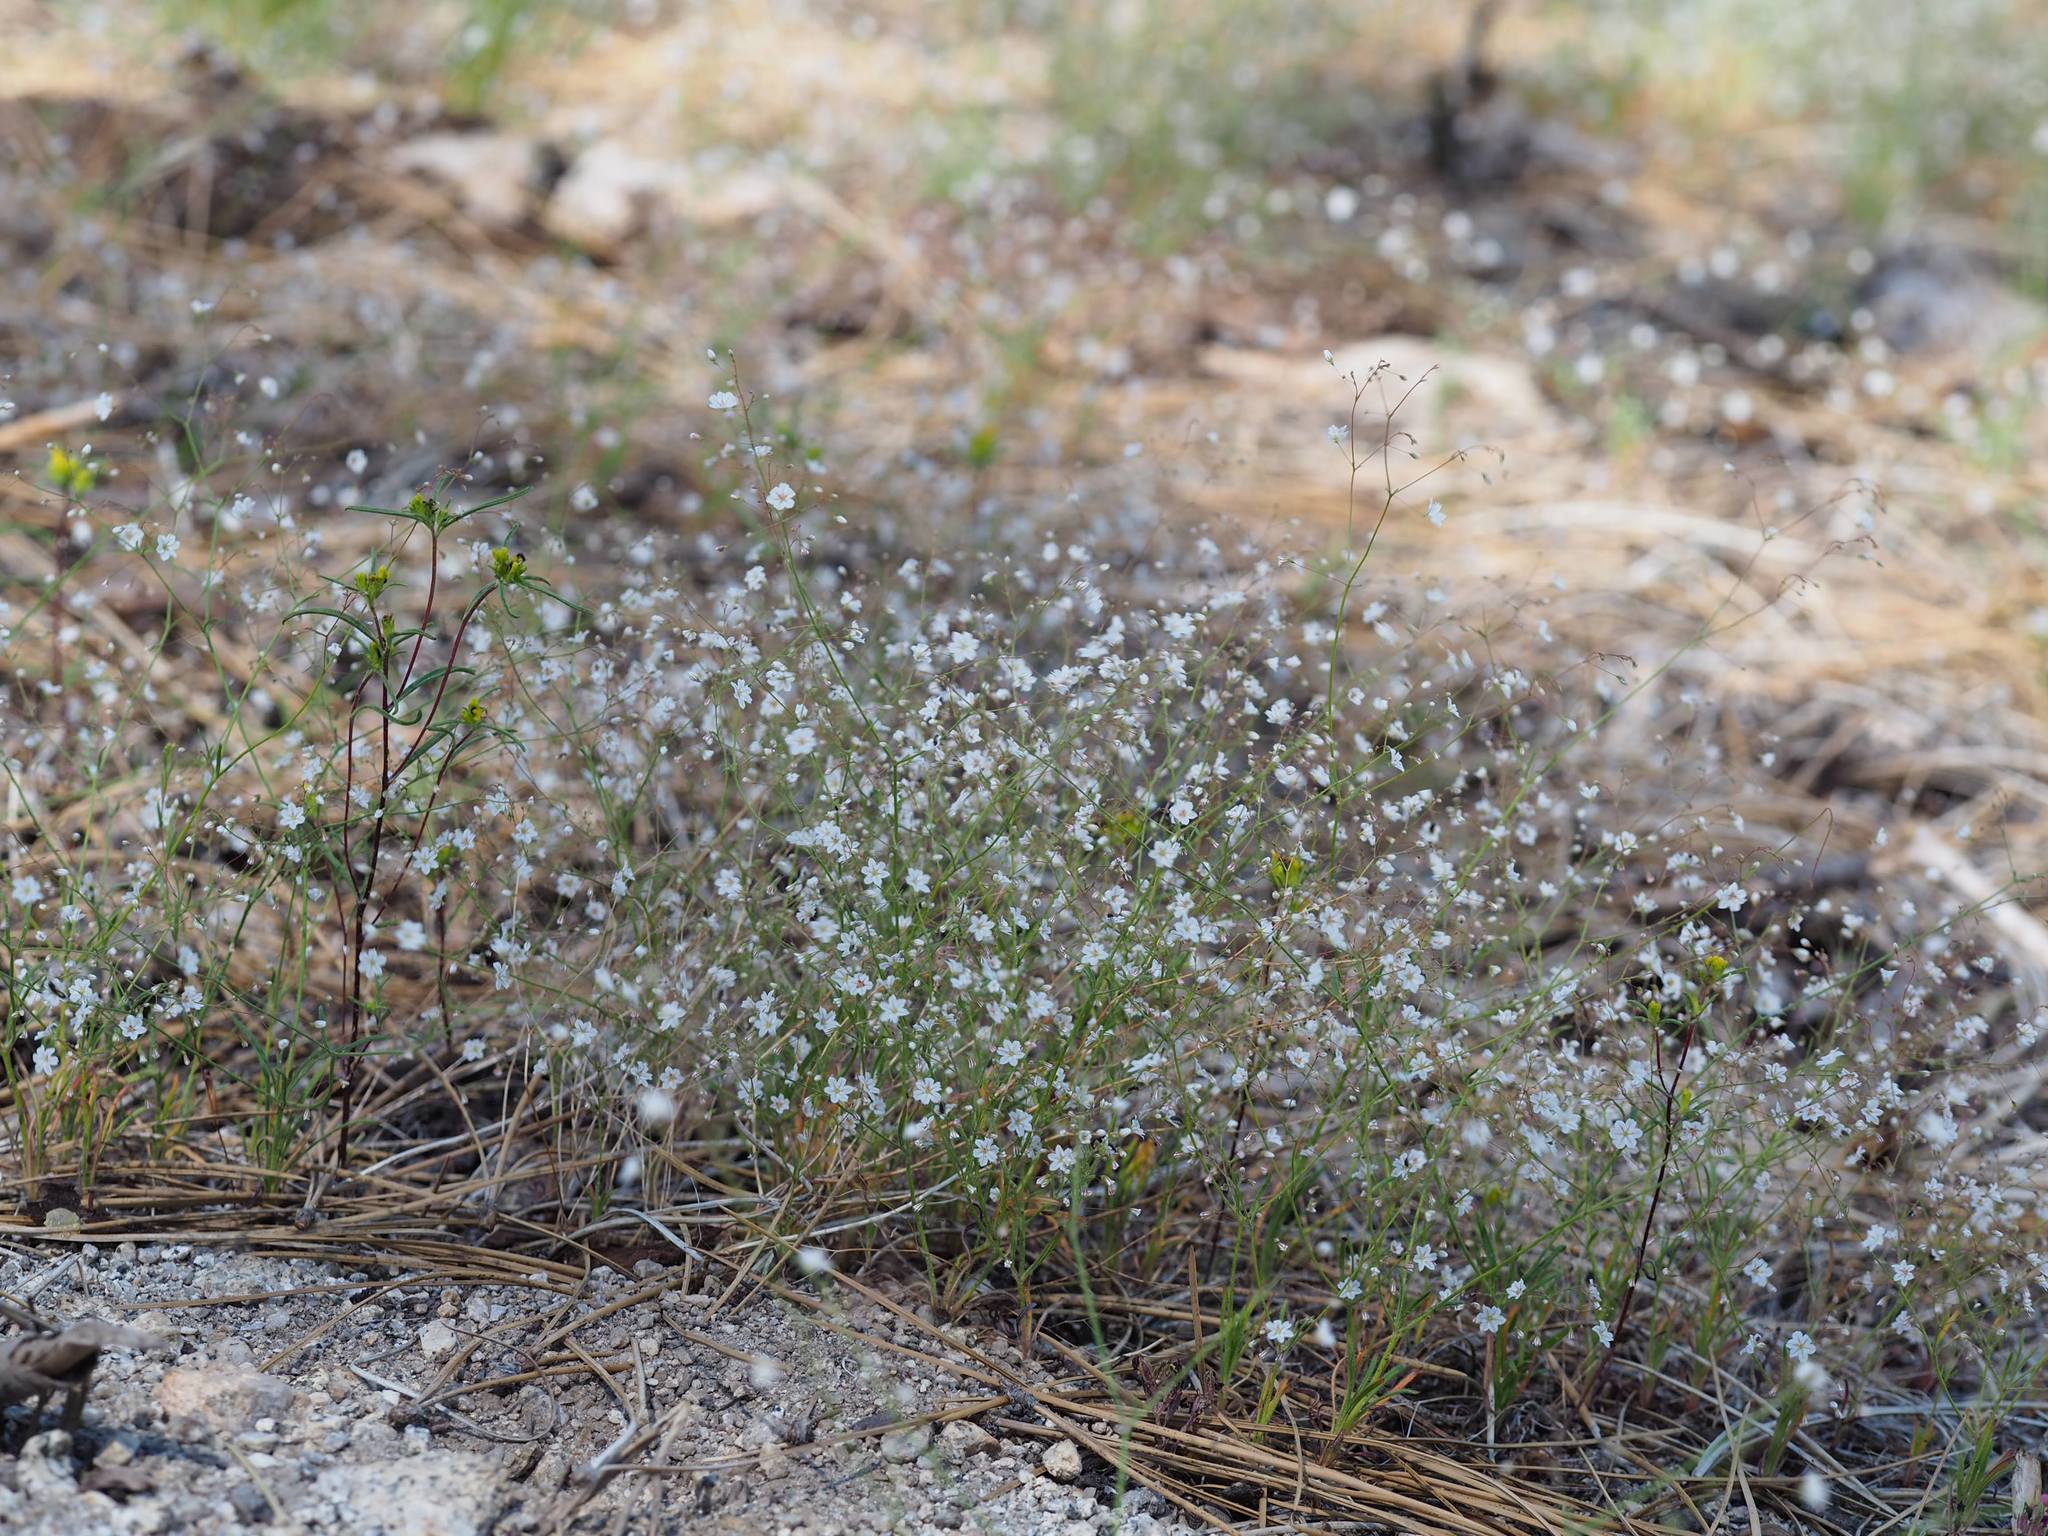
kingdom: Plantae
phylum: Tracheophyta
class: Magnoliopsida
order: Caryophyllales
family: Polygonaceae
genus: Eriogonum
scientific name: Eriogonum spergulinum
